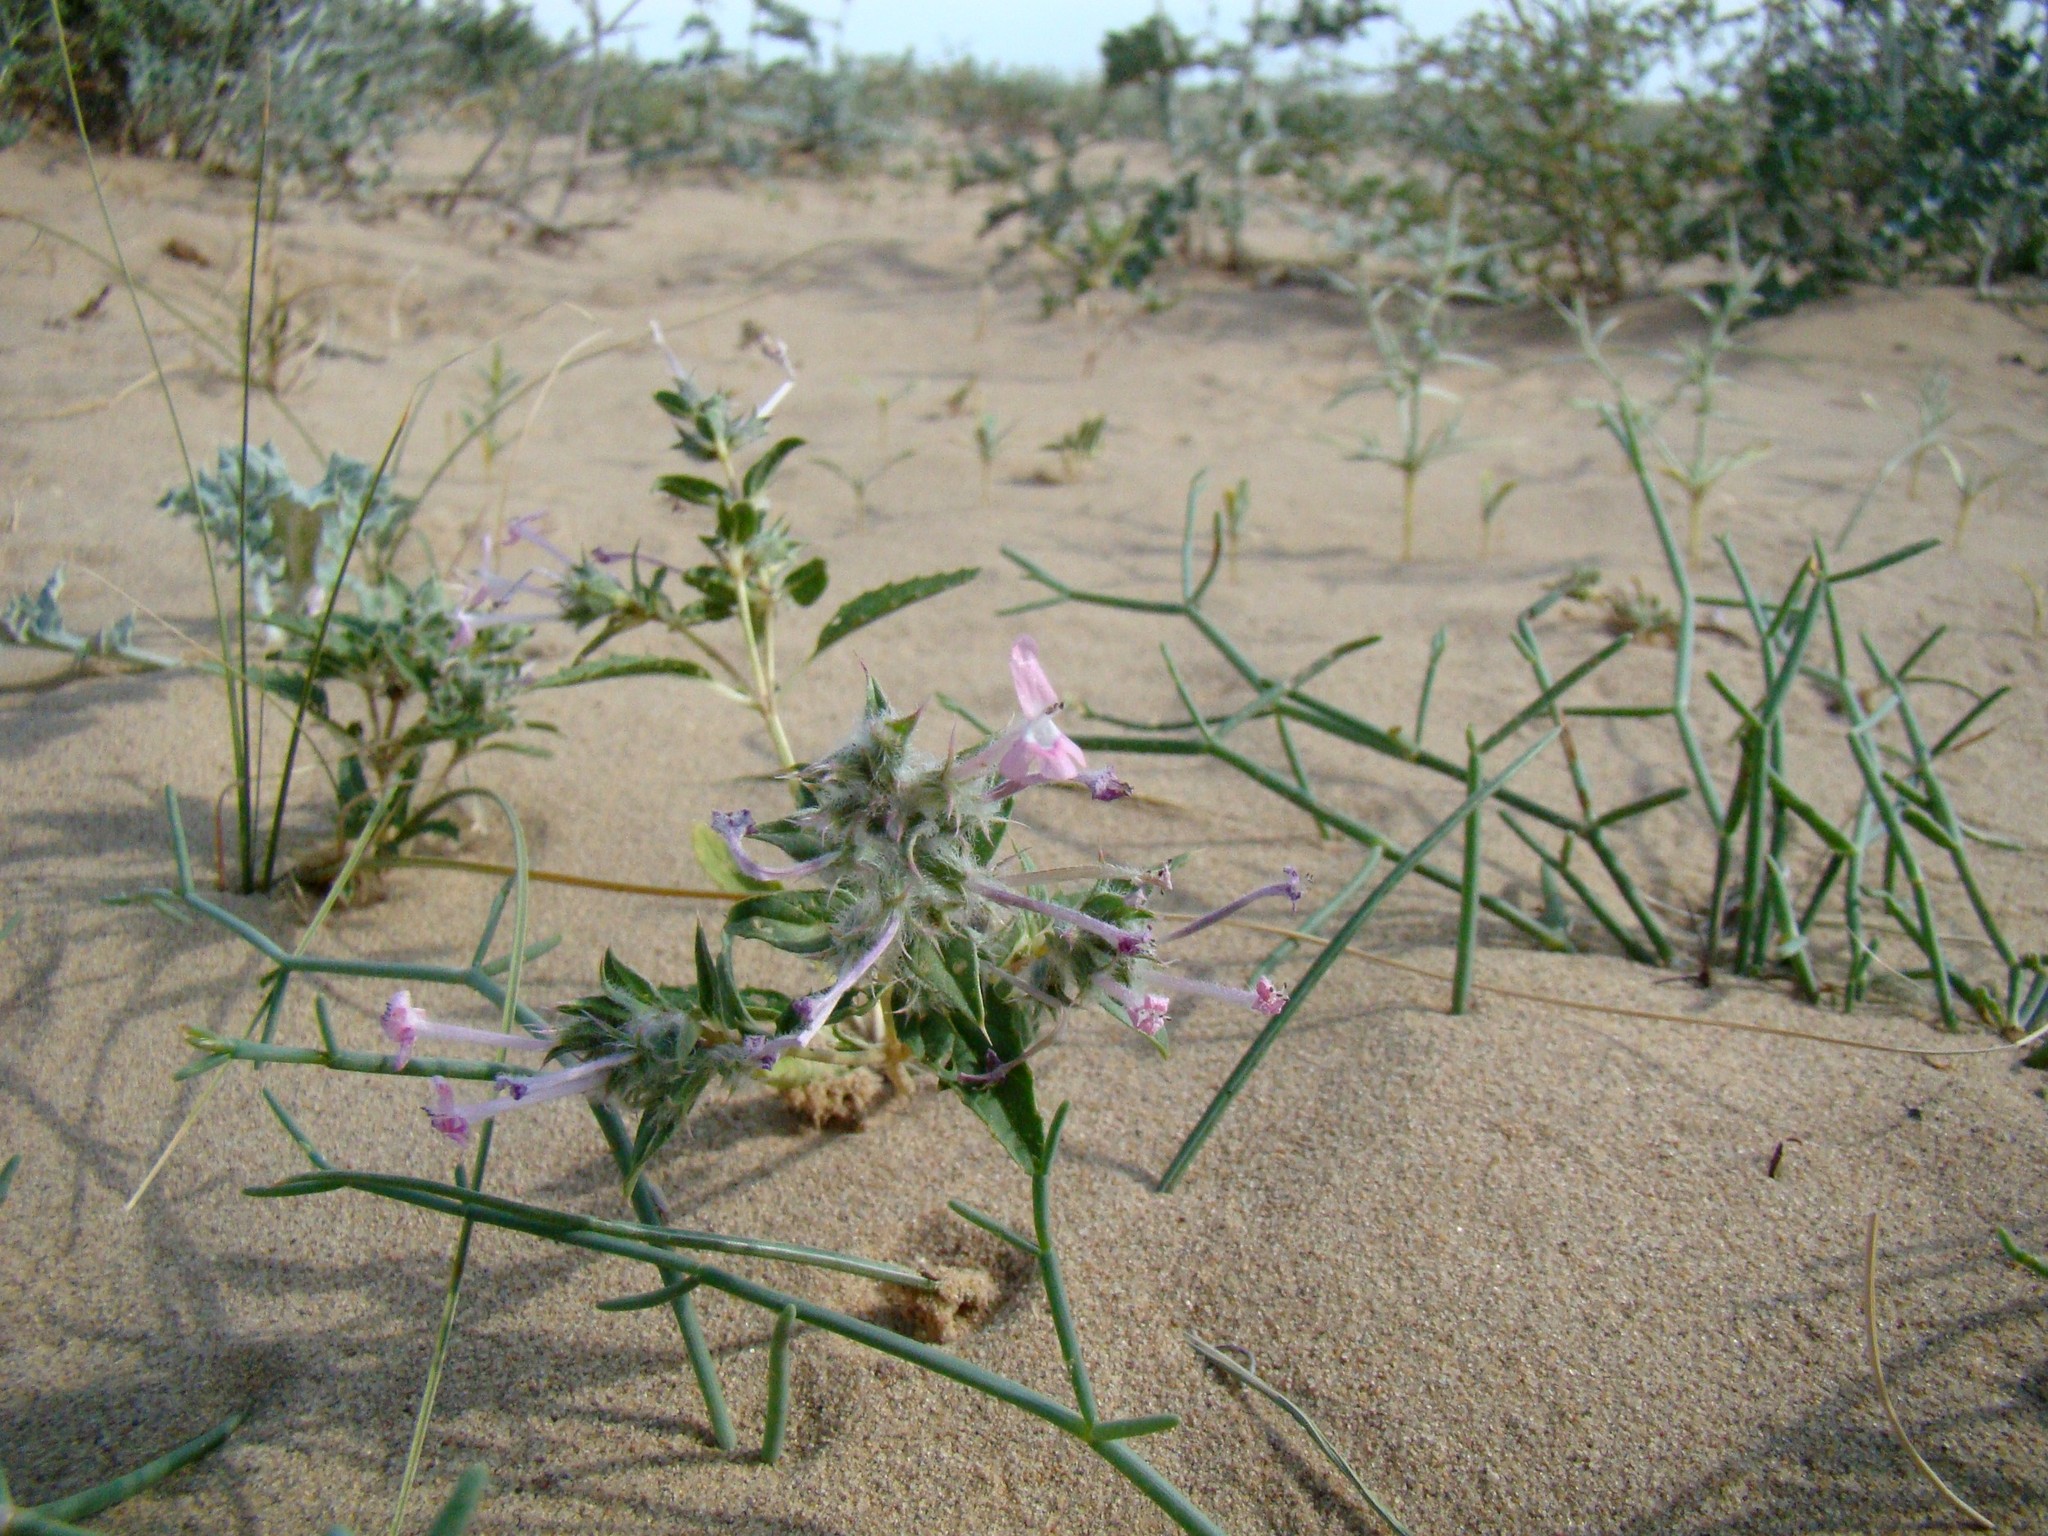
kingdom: Plantae
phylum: Tracheophyta
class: Magnoliopsida
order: Lamiales
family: Lamiaceae
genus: Chamaesphacos
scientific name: Chamaesphacos ilicifolius
